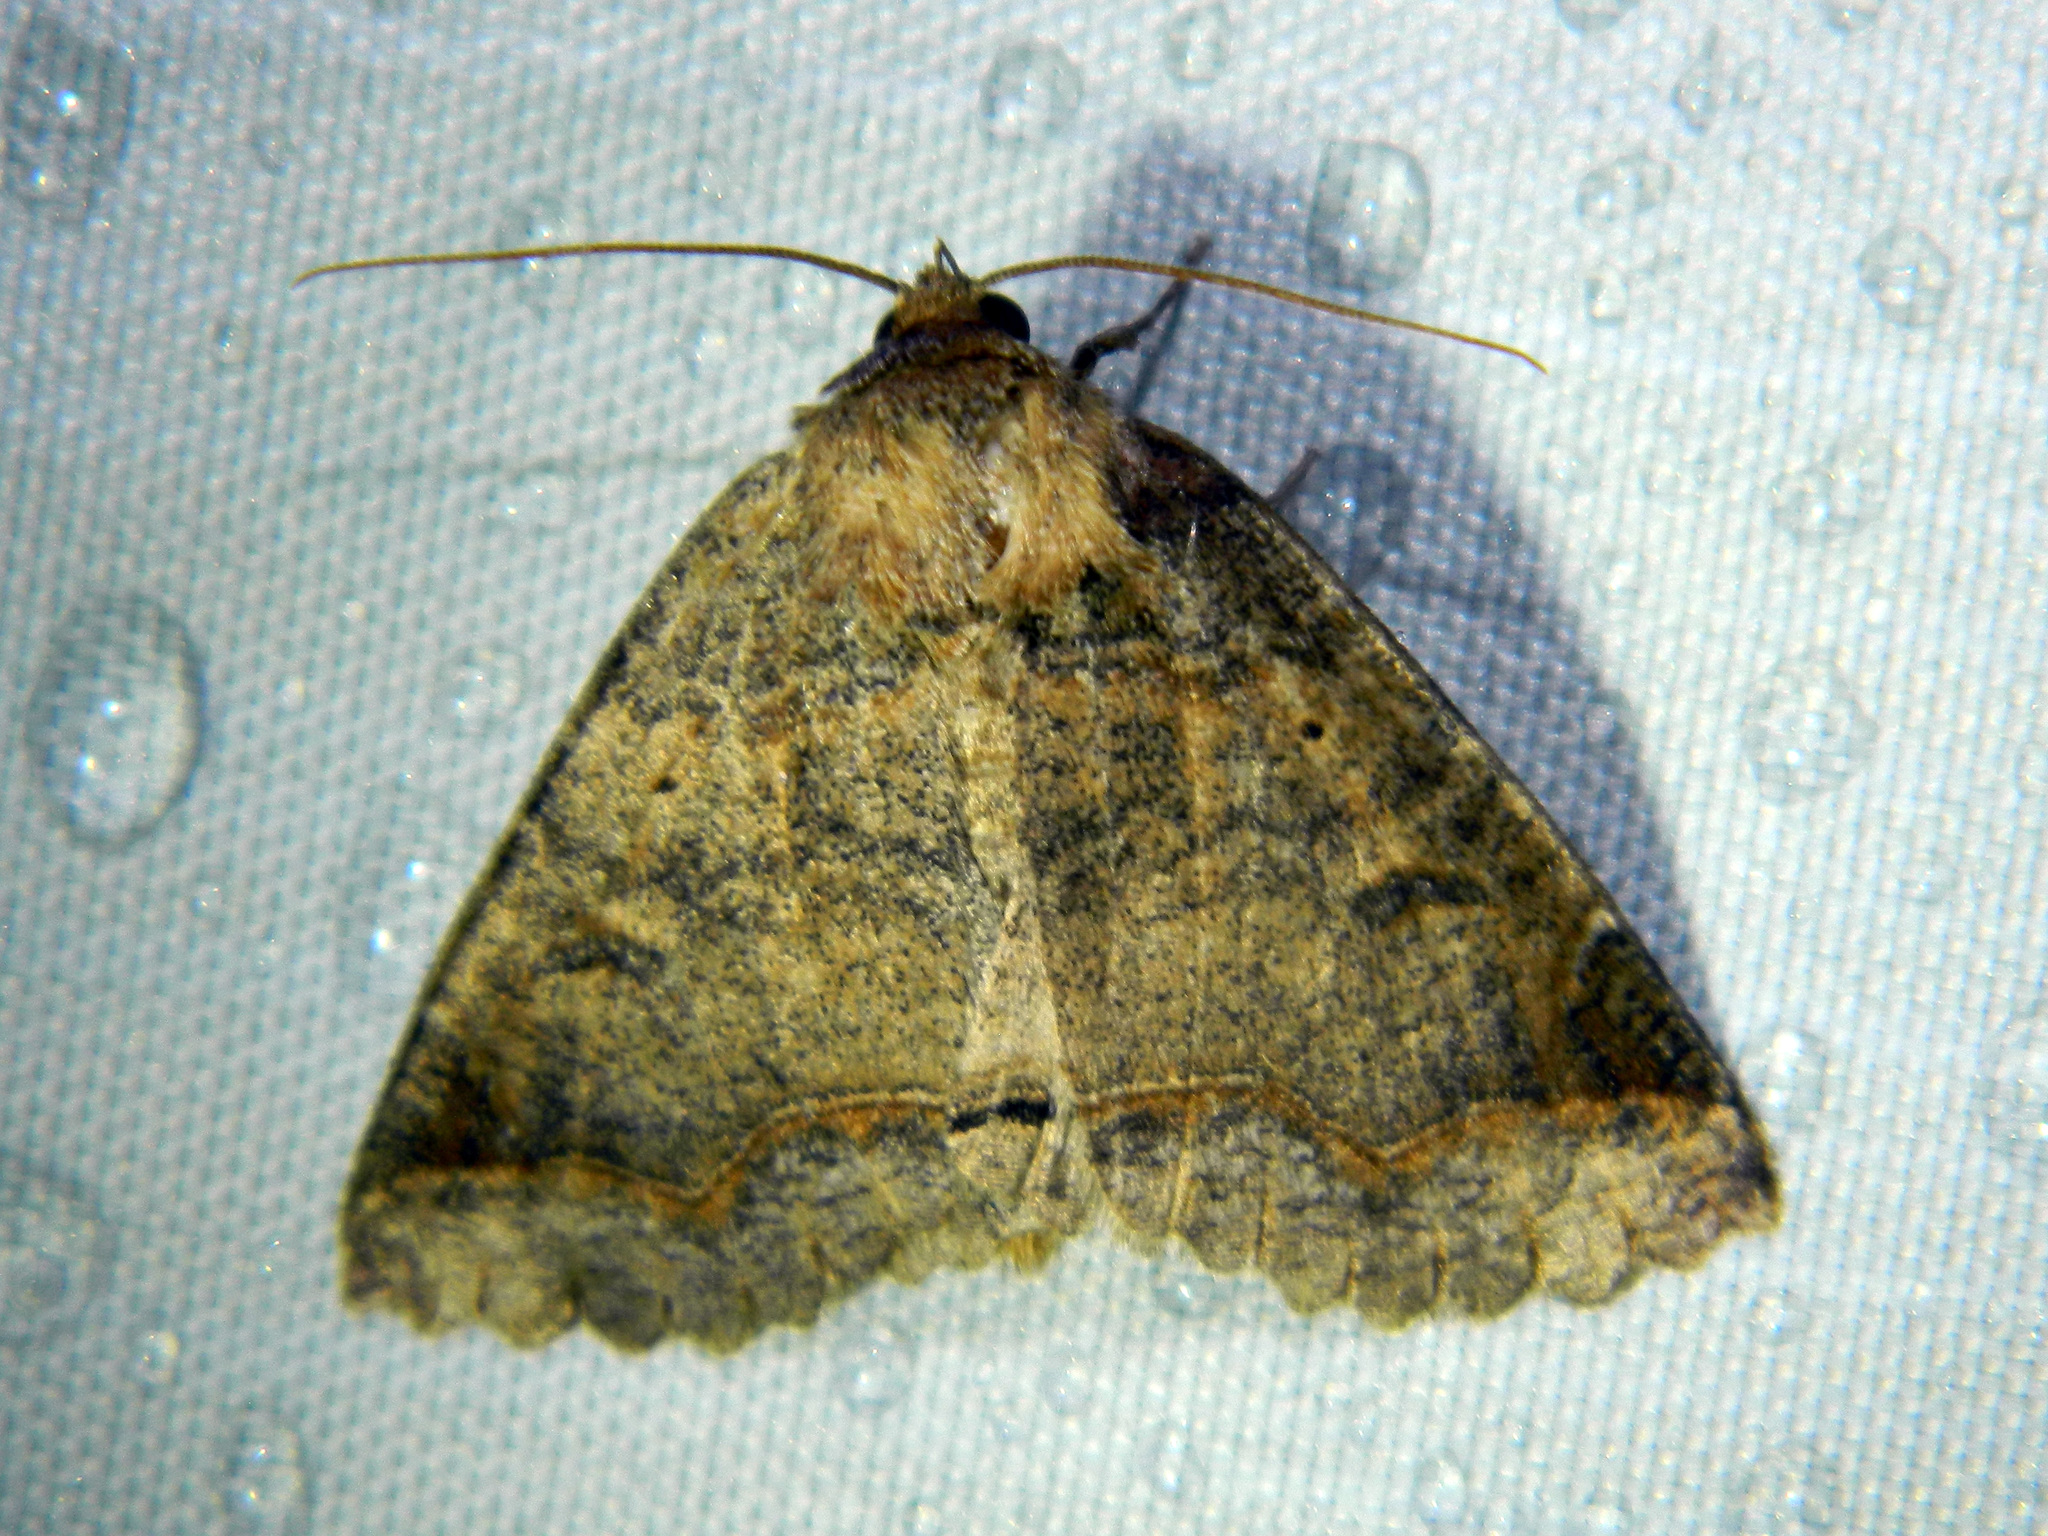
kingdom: Animalia
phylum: Arthropoda
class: Insecta
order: Lepidoptera
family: Erebidae
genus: Zale
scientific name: Zale unilineata
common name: One-lined zale moth
